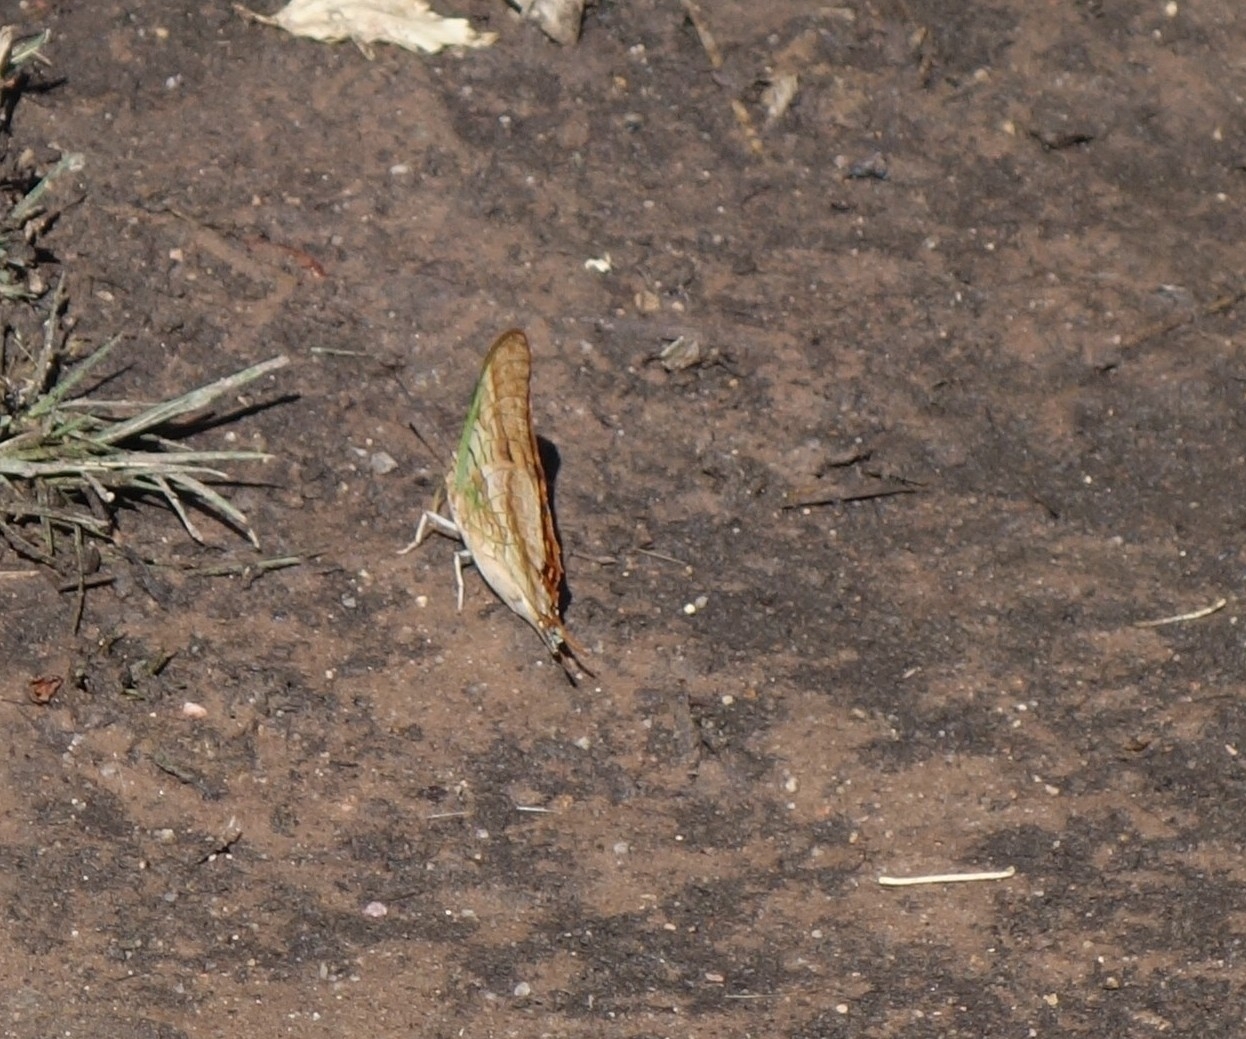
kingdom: Animalia
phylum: Arthropoda
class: Insecta
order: Lepidoptera
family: Nymphalidae
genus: Charaxes
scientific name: Charaxes candiope
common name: Green-veined charaxes
